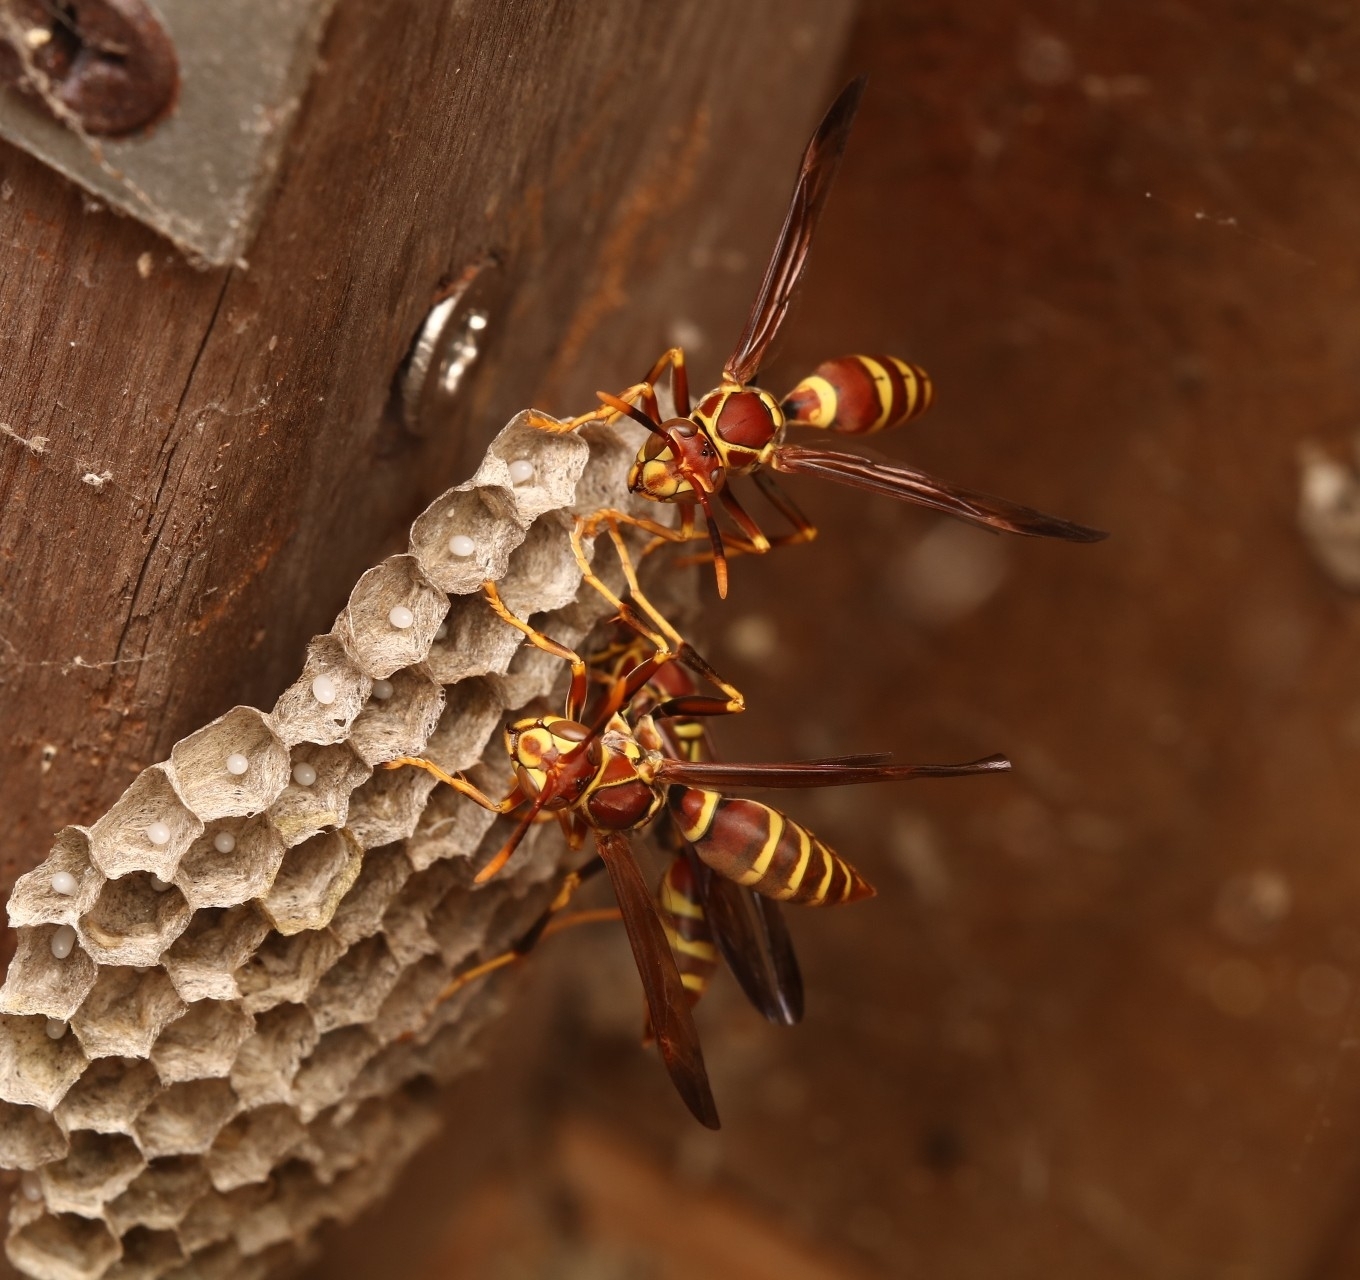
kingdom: Animalia
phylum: Arthropoda
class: Insecta
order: Hymenoptera
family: Eumenidae
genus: Polistes
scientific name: Polistes exclamans
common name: Paper wasp
